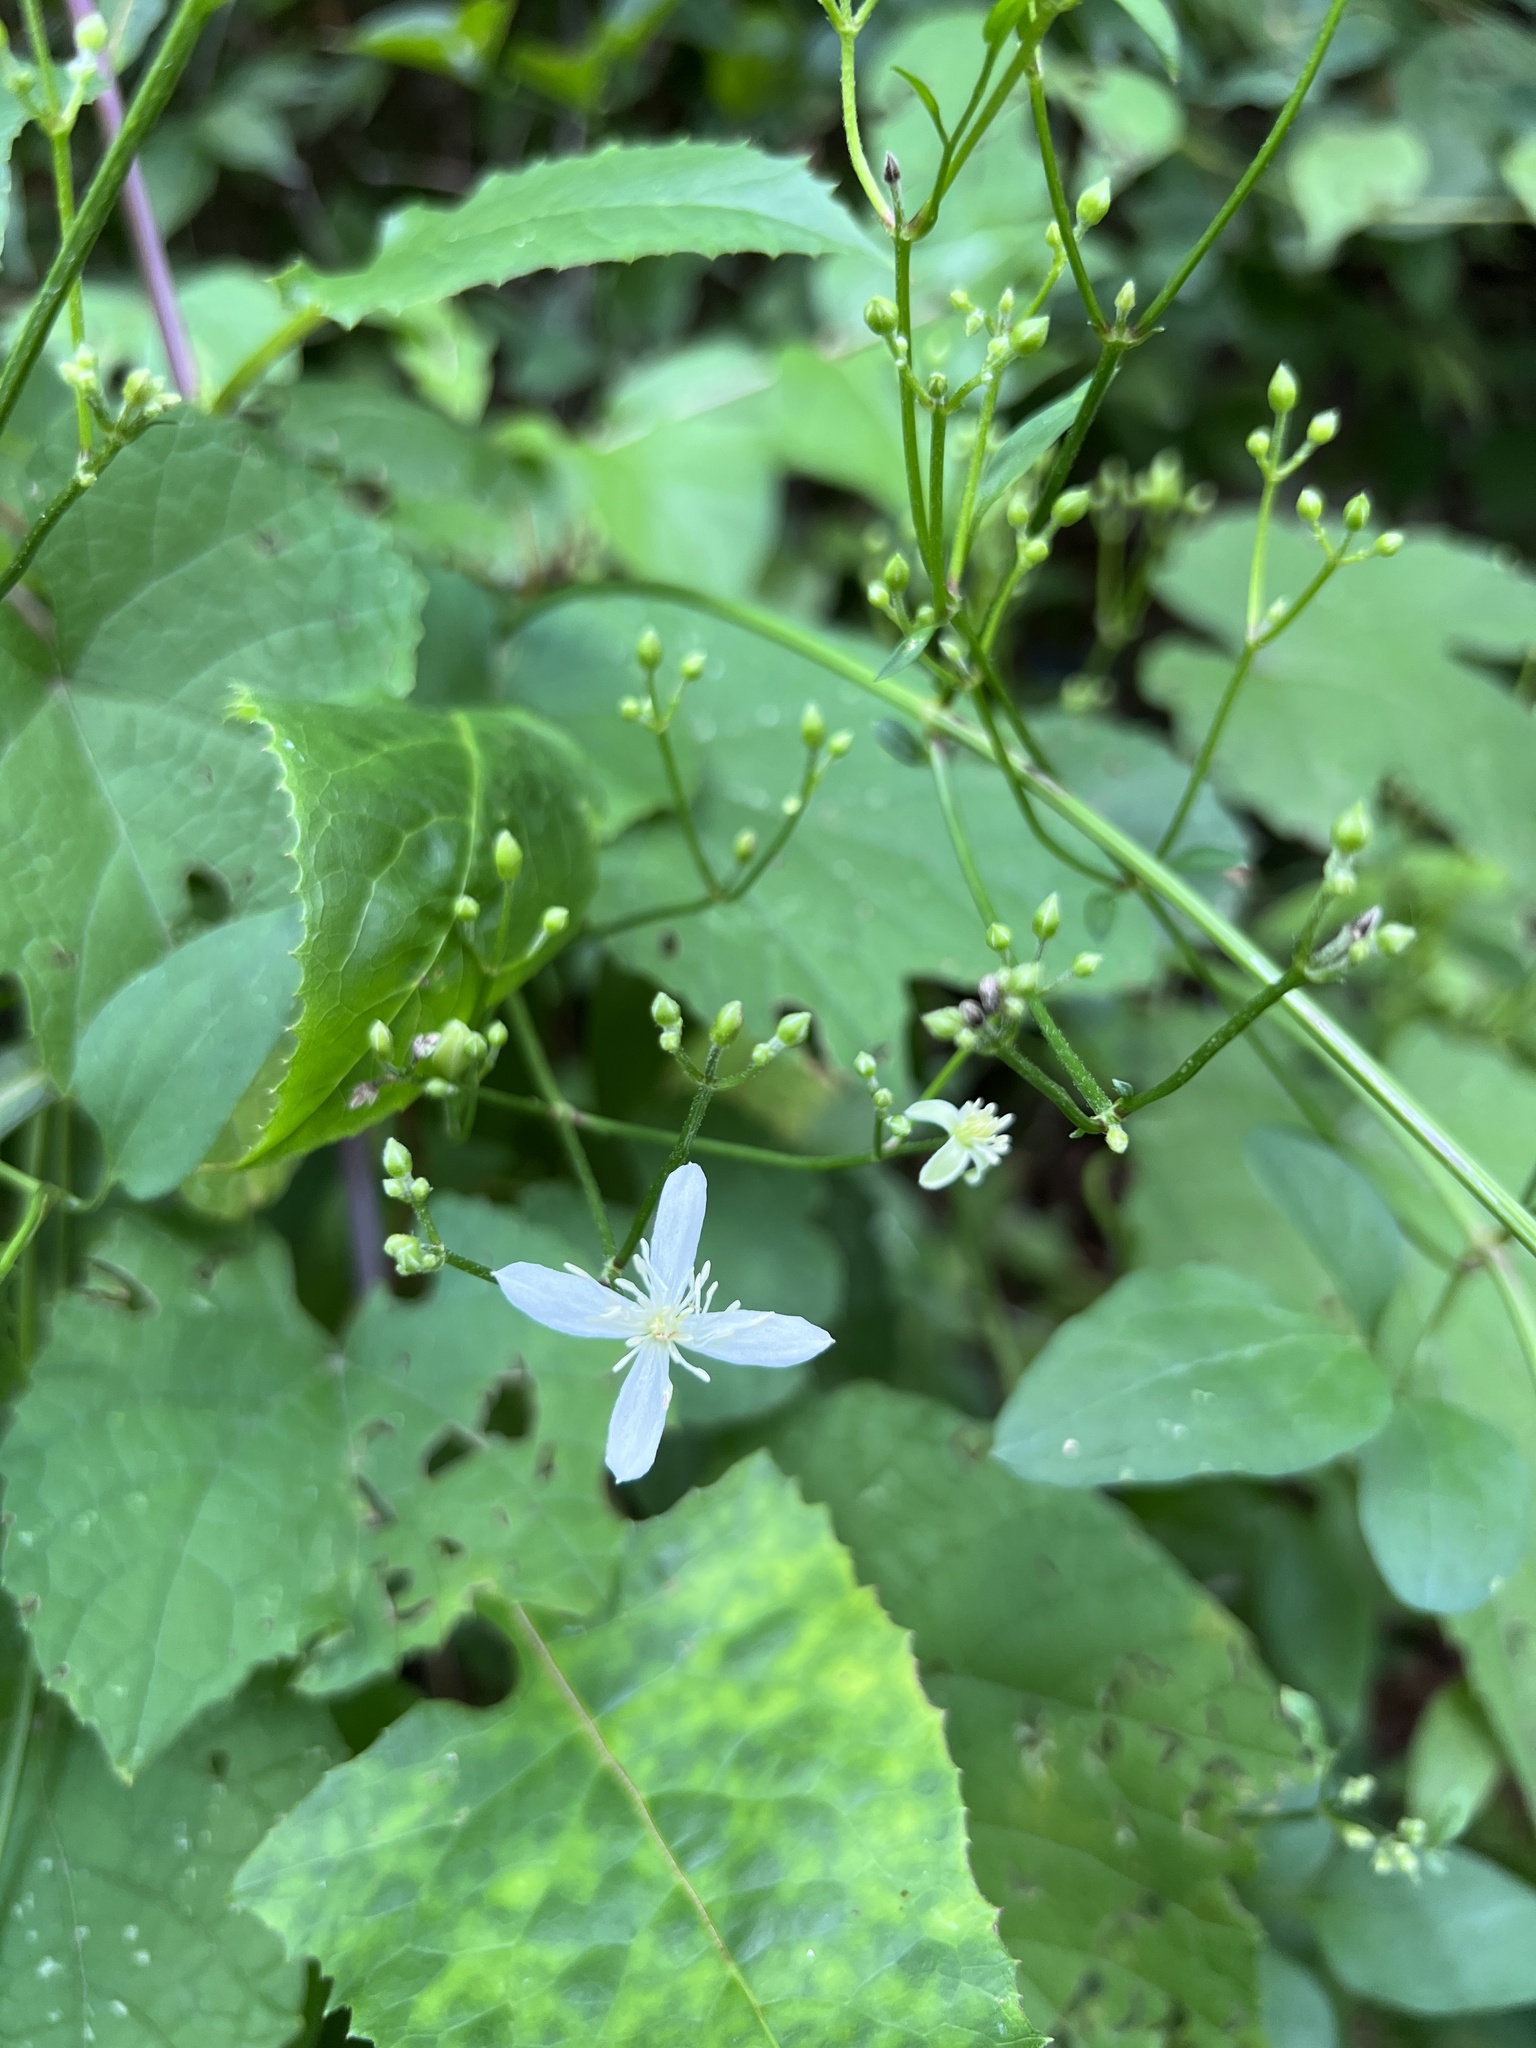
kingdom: Plantae
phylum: Tracheophyta
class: Magnoliopsida
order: Ranunculales
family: Ranunculaceae
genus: Clematis
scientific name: Clematis terniflora
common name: Sweet autumn clematis
